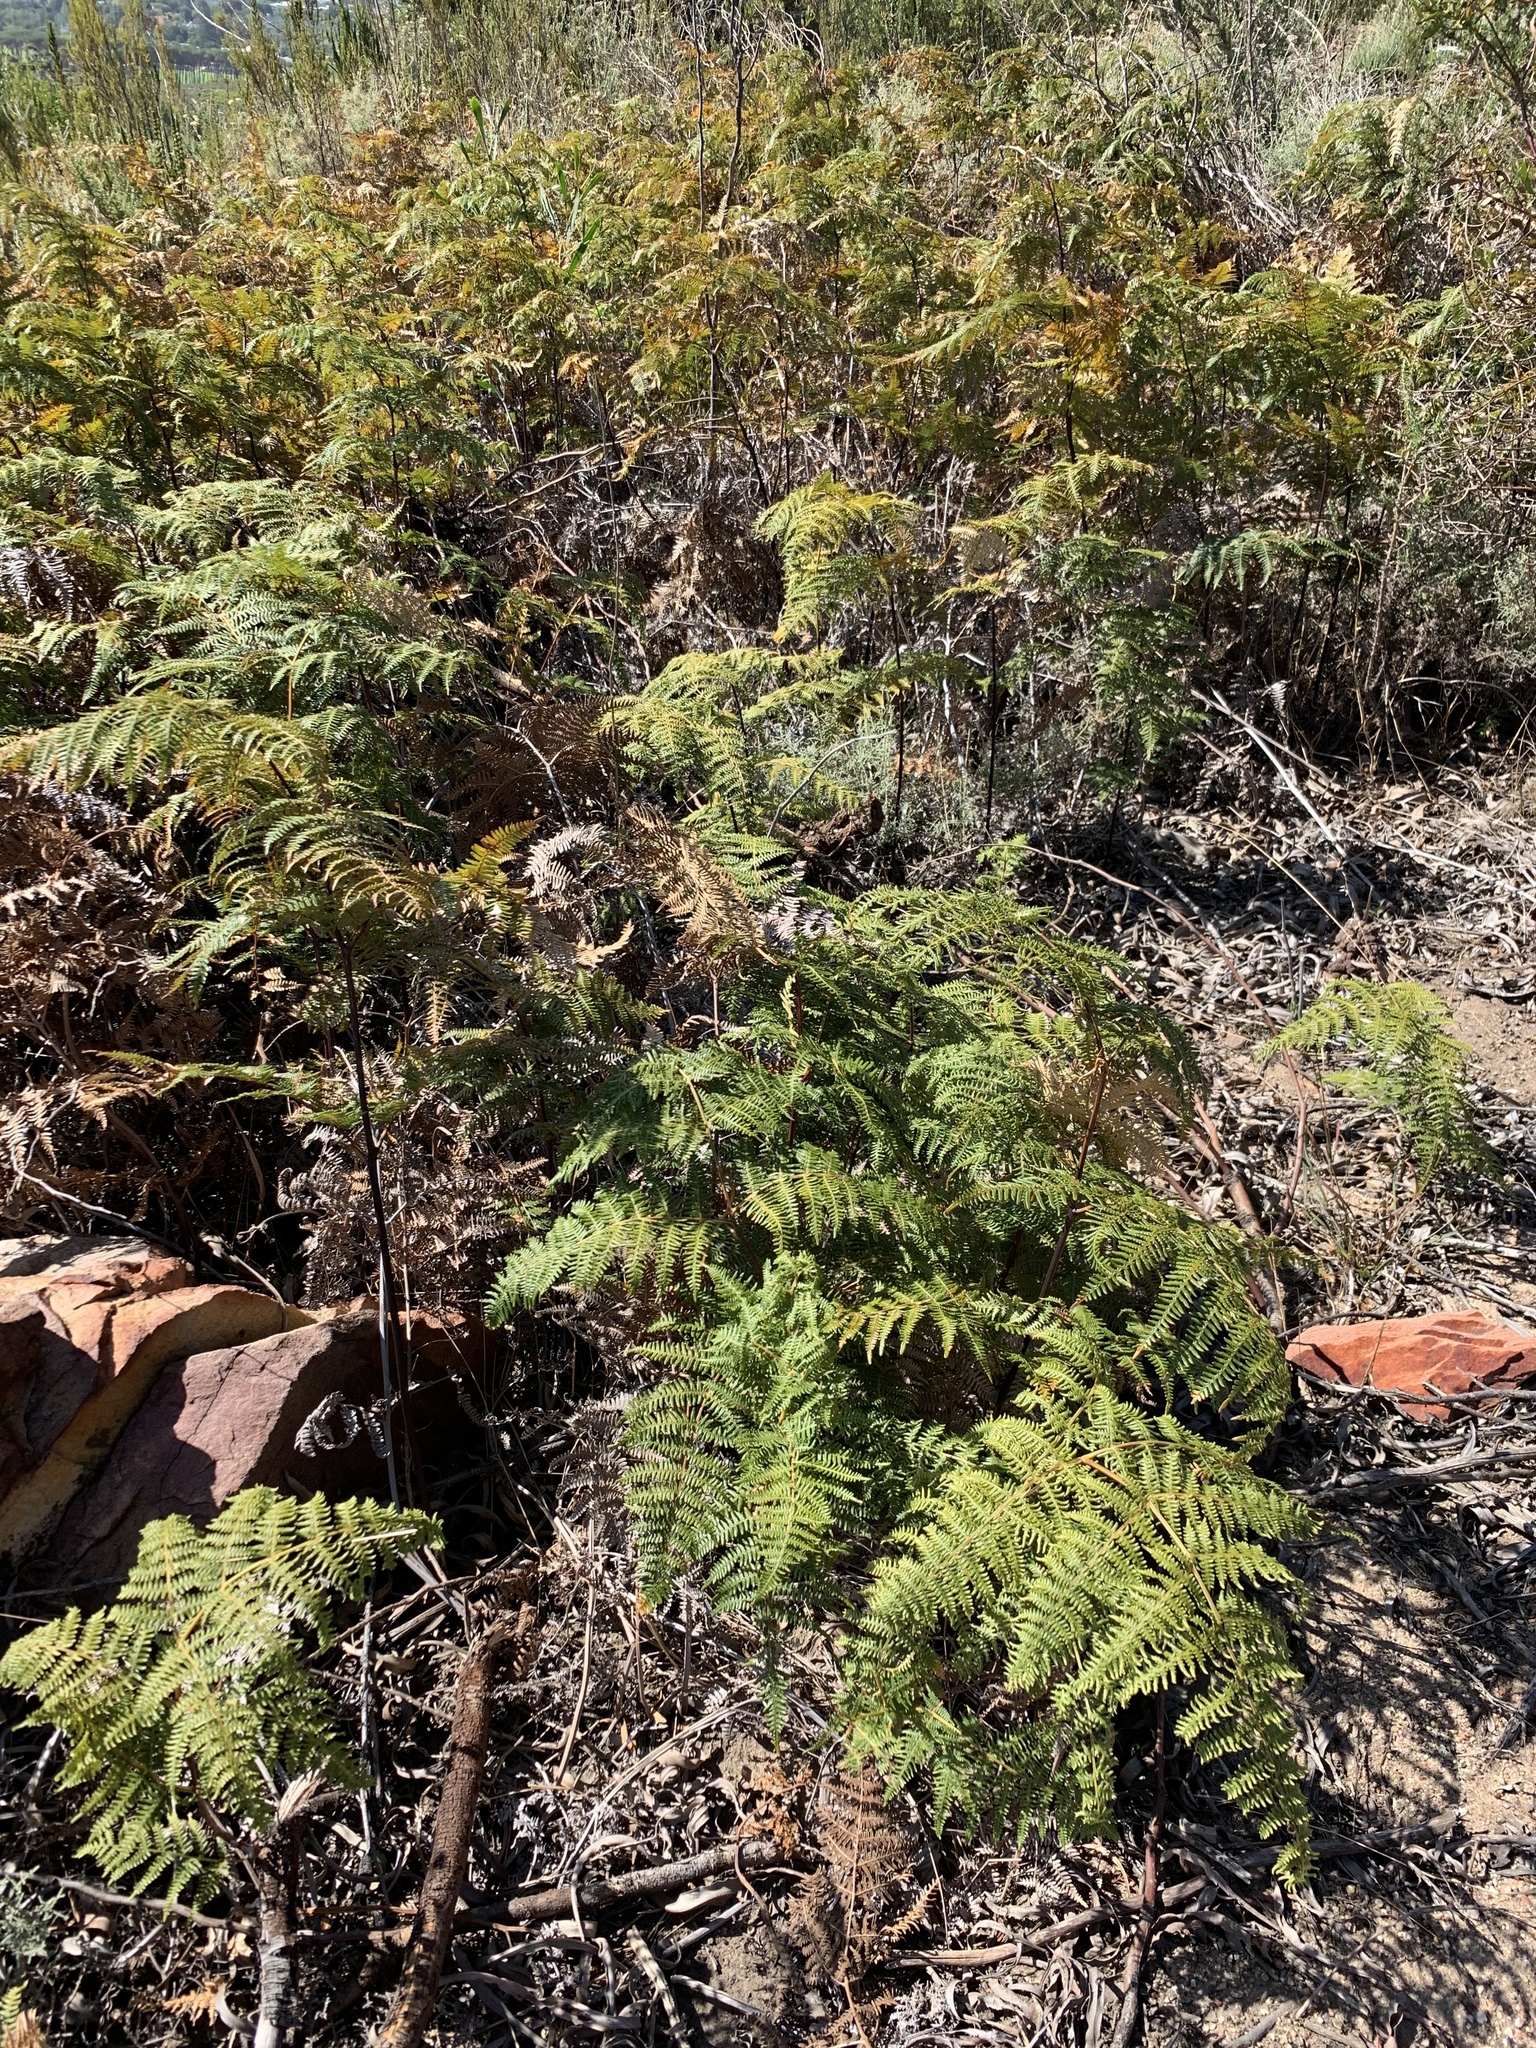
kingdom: Plantae
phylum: Tracheophyta
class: Polypodiopsida
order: Polypodiales
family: Dennstaedtiaceae
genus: Pteridium
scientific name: Pteridium aquilinum
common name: Bracken
